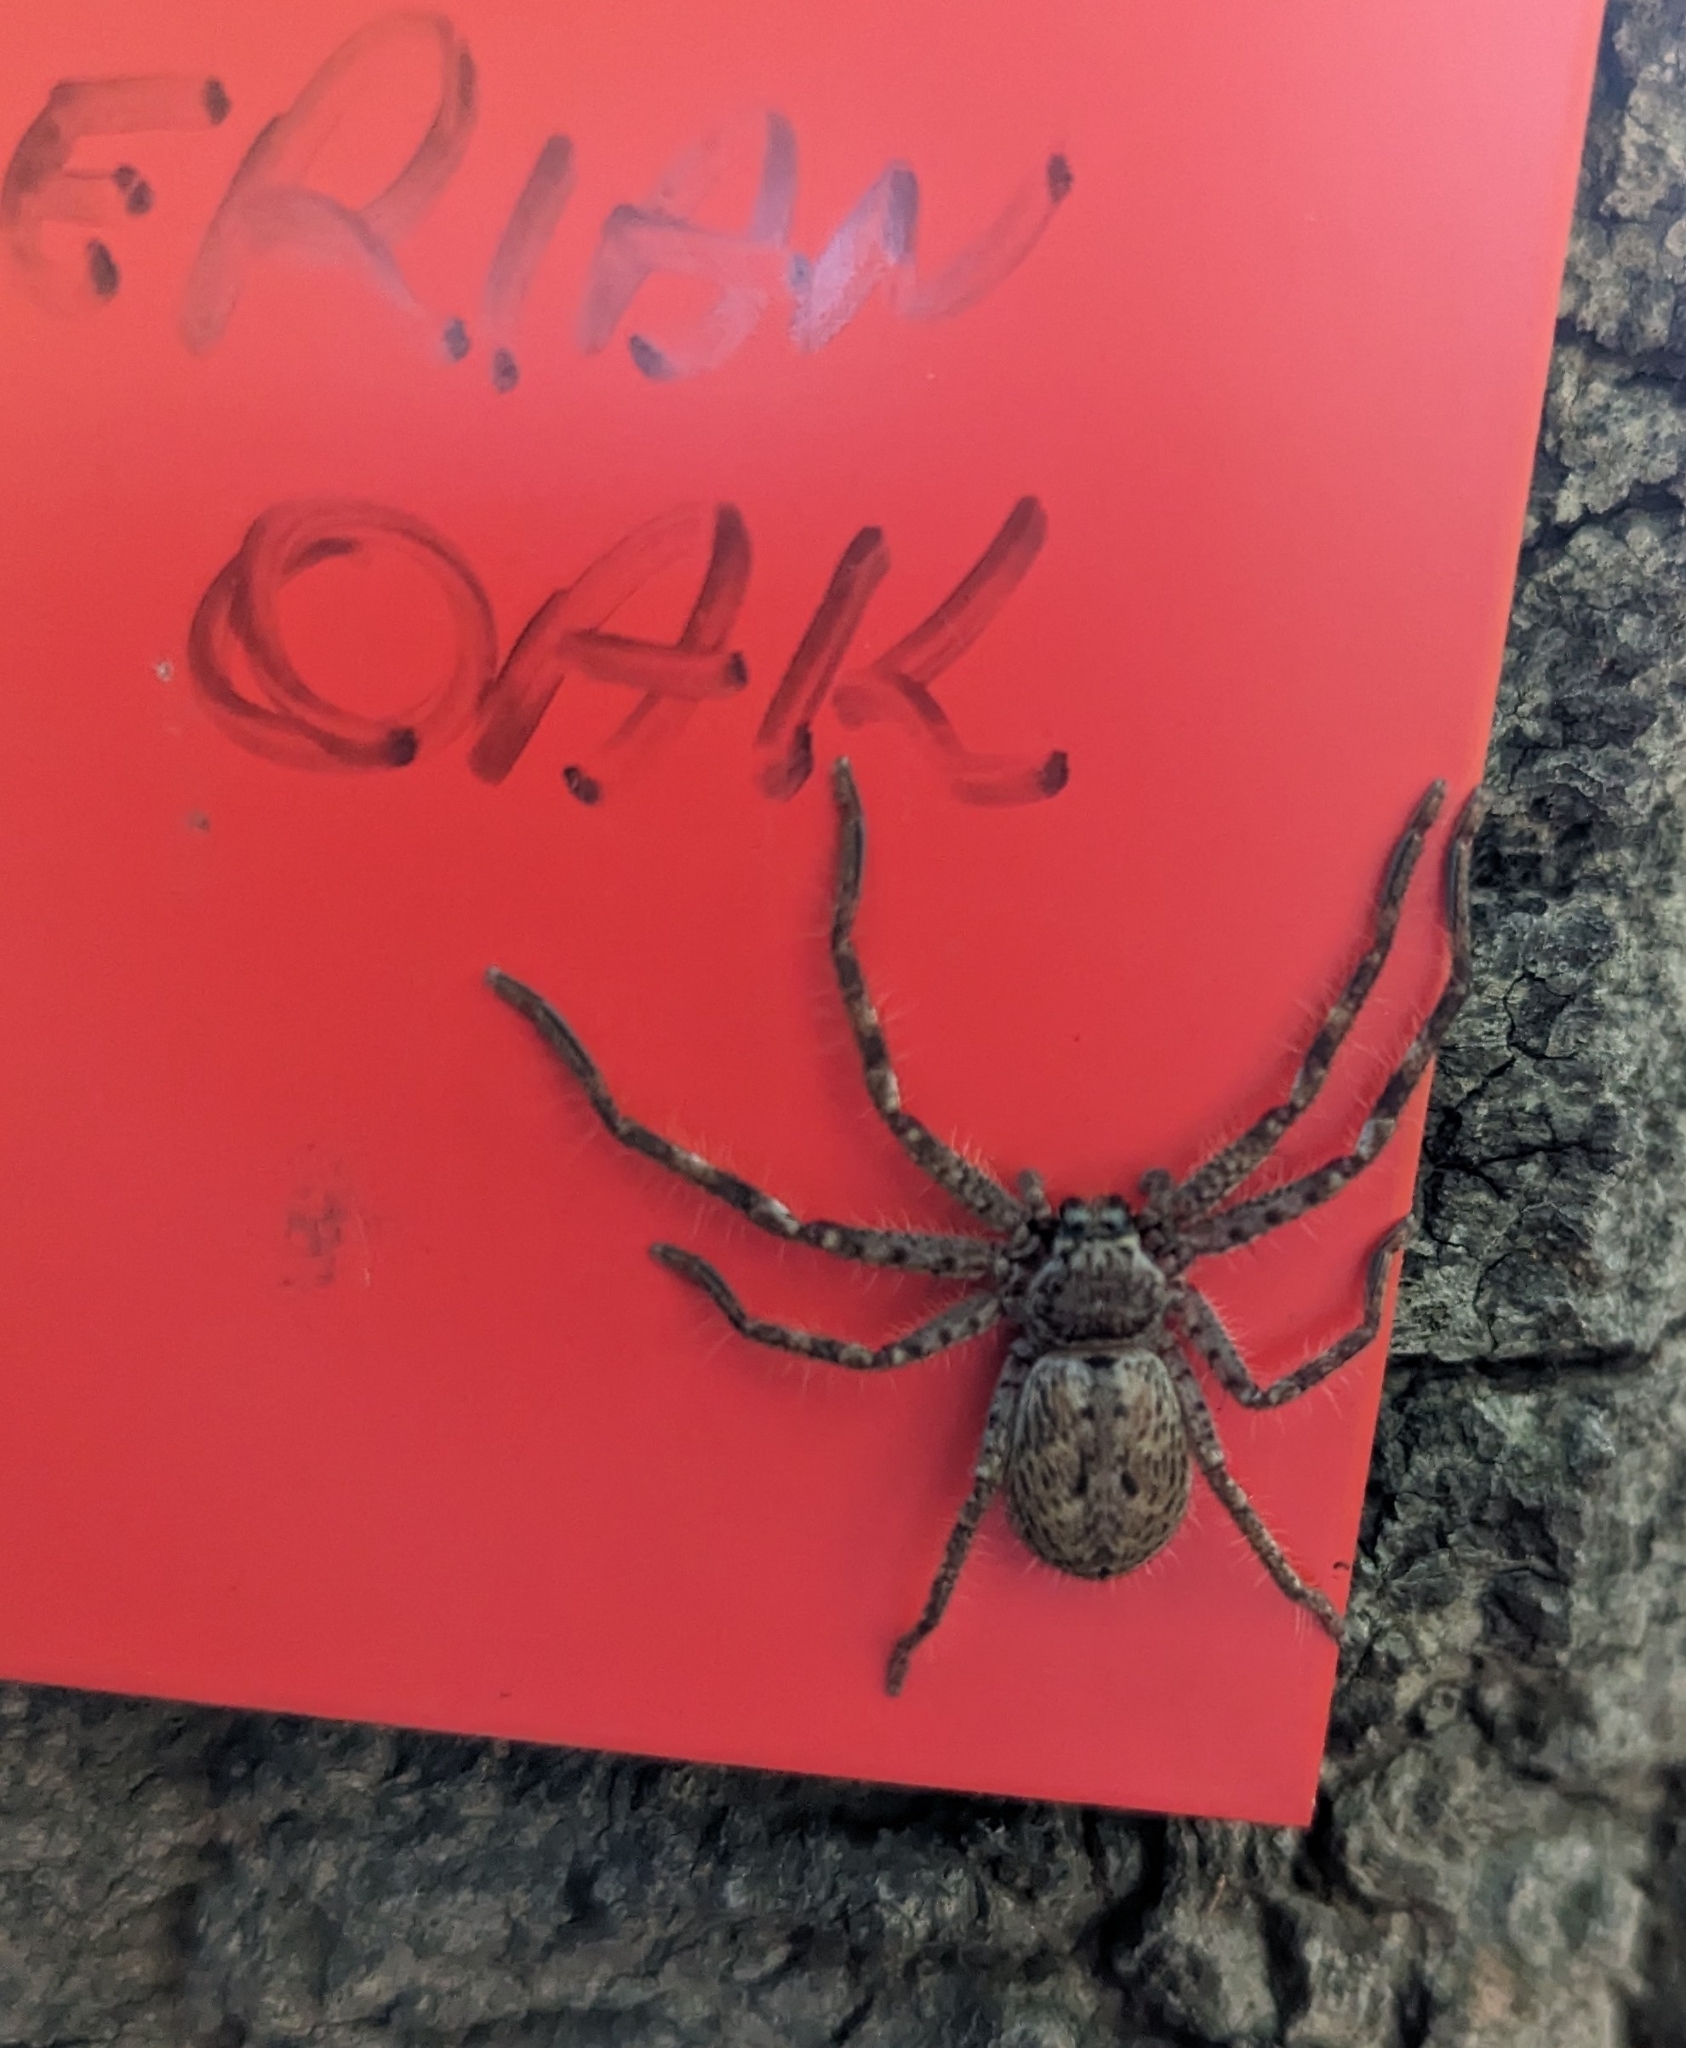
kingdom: Animalia
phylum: Arthropoda
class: Arachnida
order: Araneae
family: Sparassidae
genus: Isopeda
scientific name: Isopeda montana
